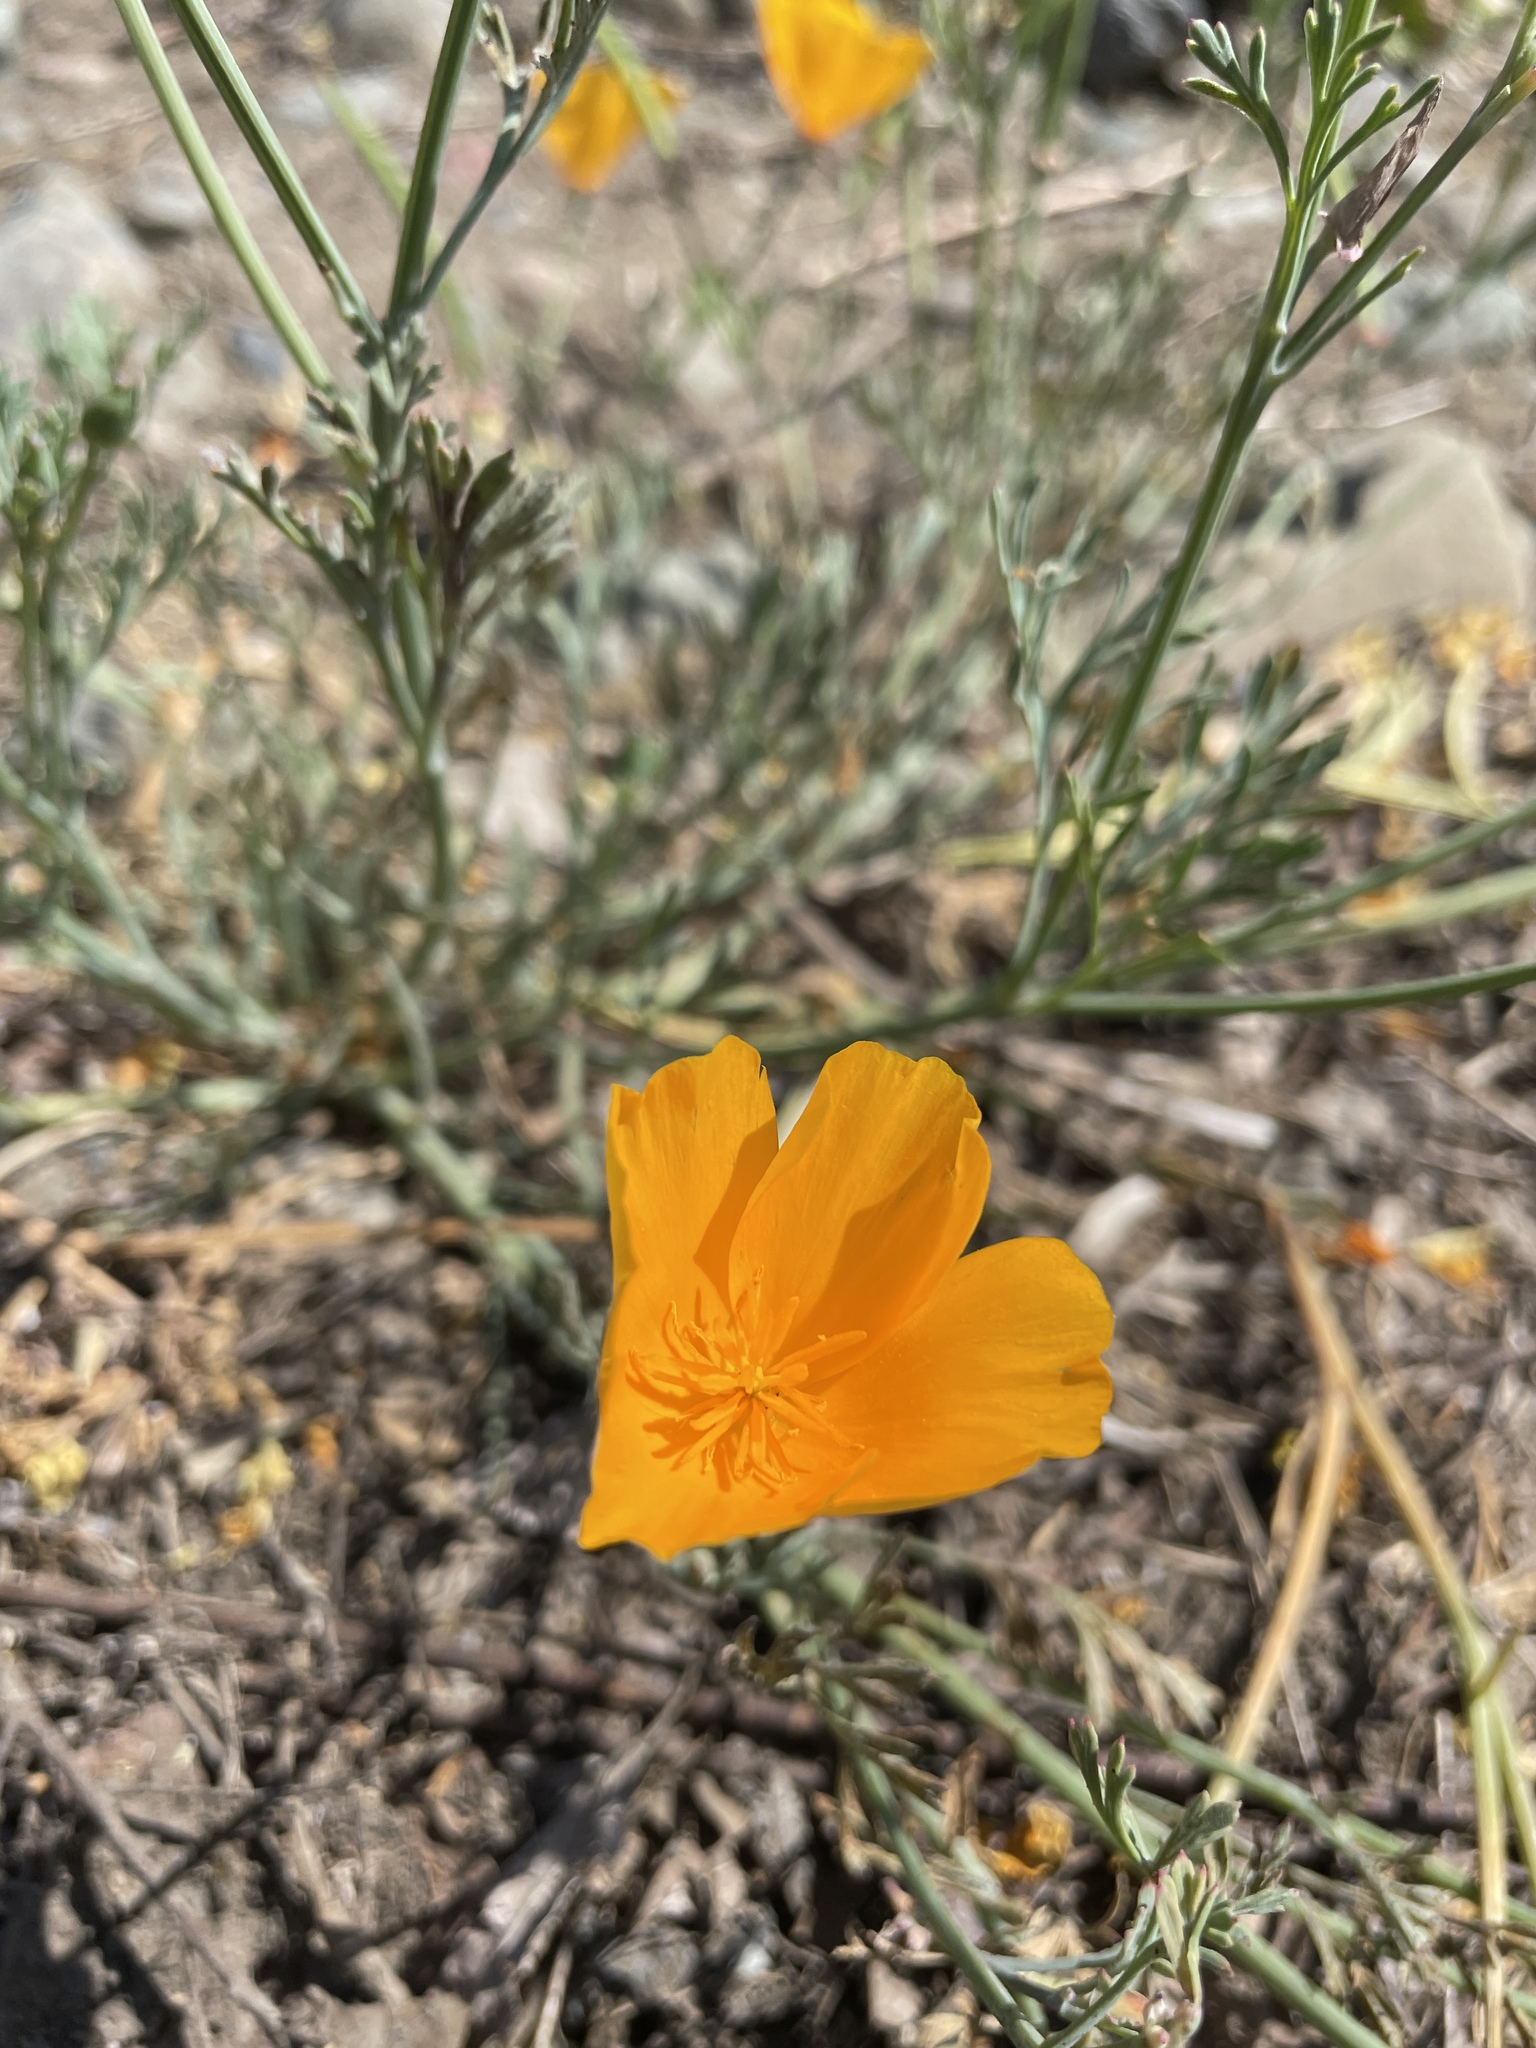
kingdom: Plantae
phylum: Tracheophyta
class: Magnoliopsida
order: Ranunculales
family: Papaveraceae
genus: Eschscholzia
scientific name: Eschscholzia californica
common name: California poppy
